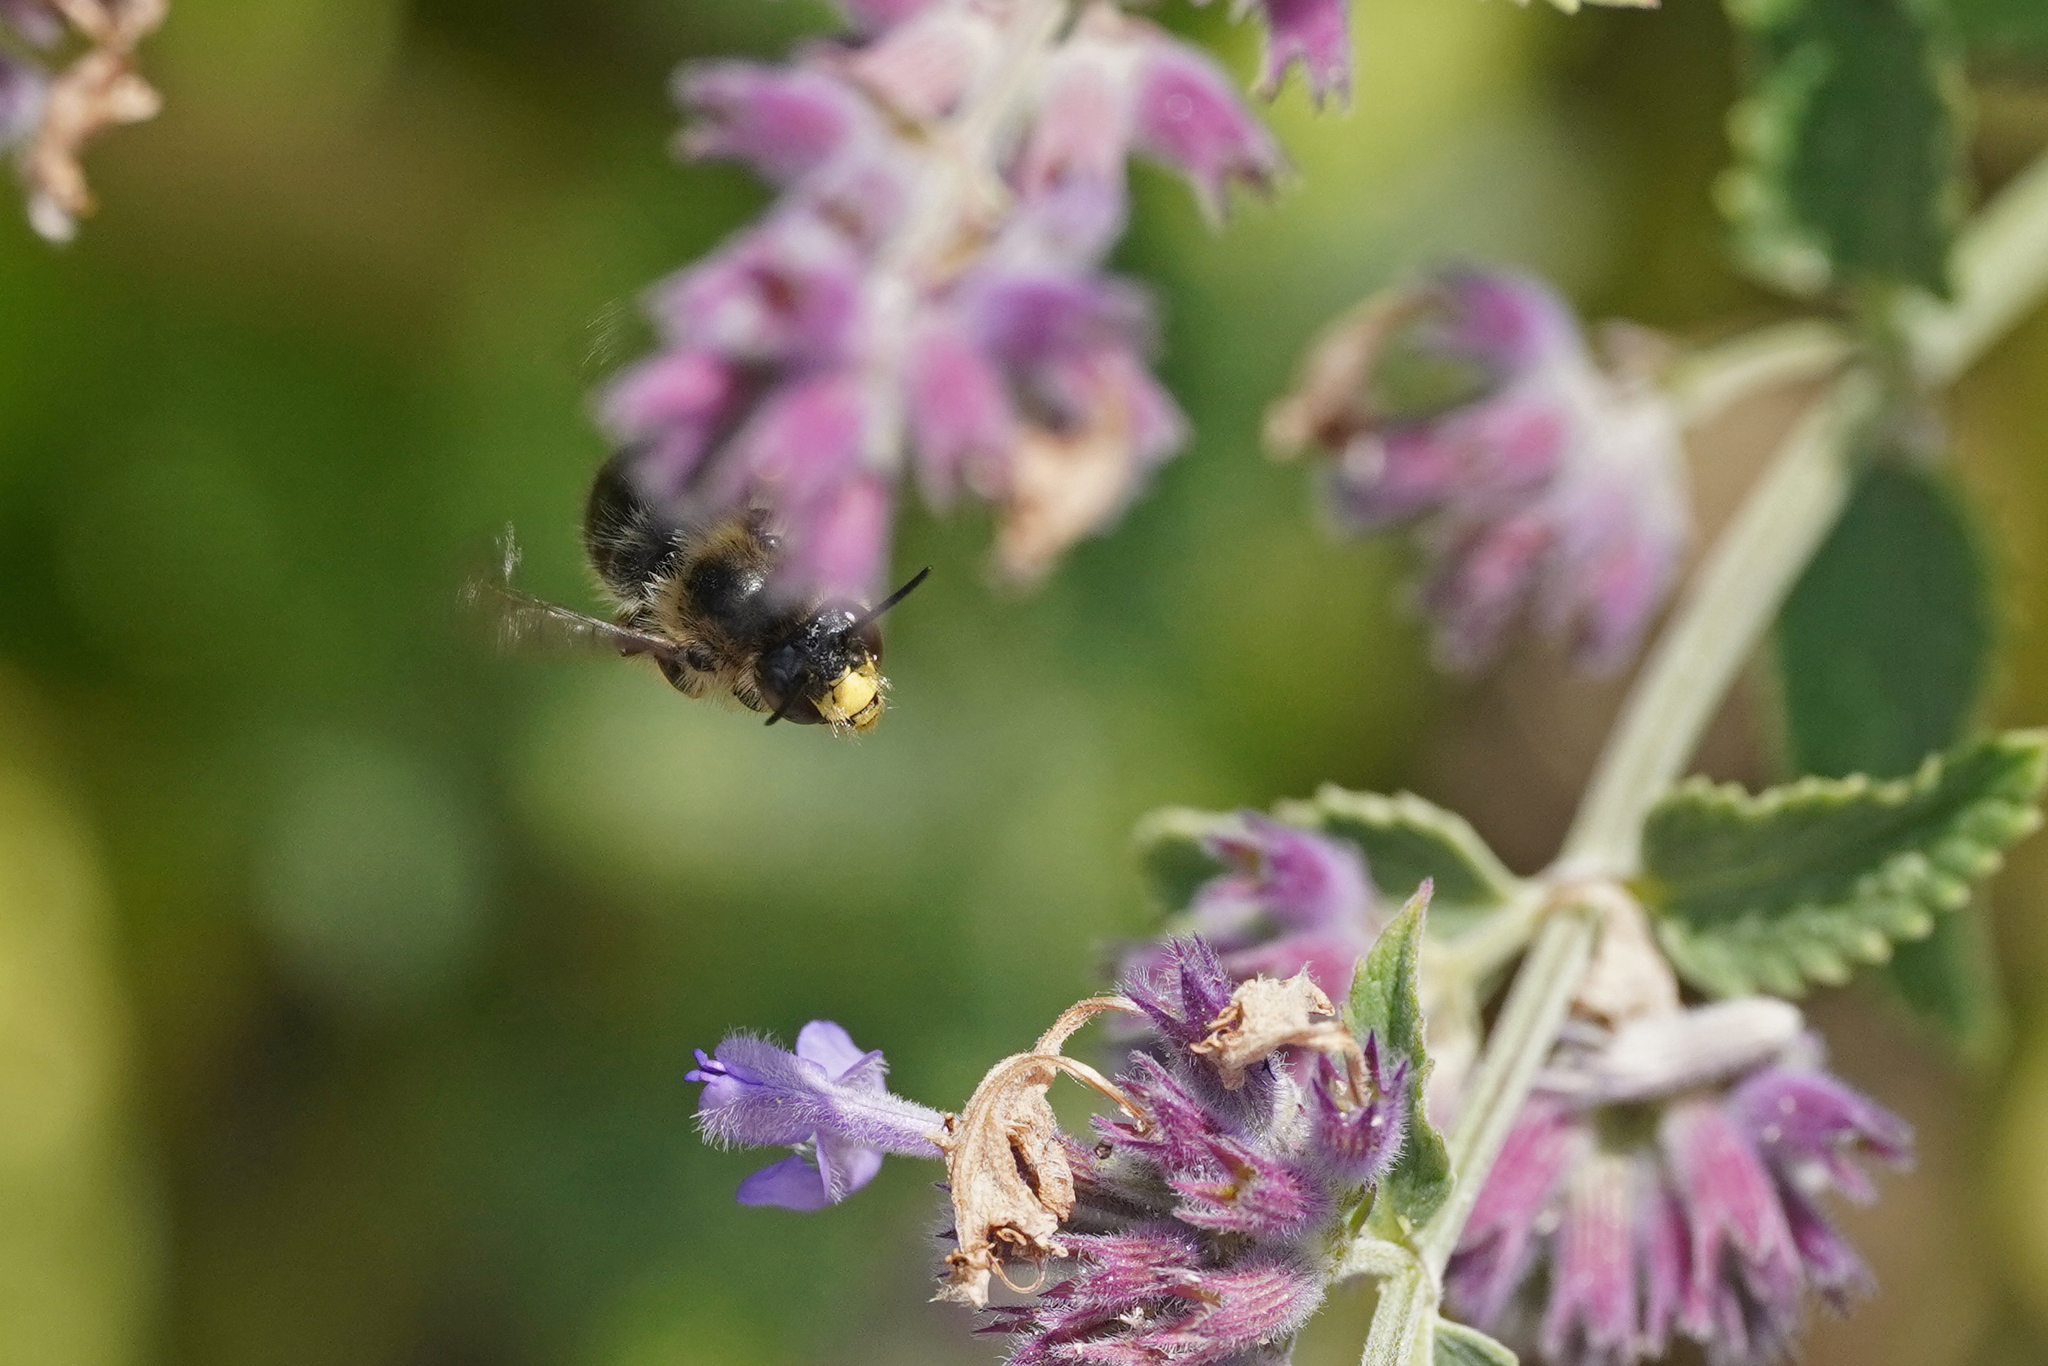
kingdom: Animalia
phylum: Arthropoda
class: Insecta
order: Hymenoptera
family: Apidae
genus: Anthophora
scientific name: Anthophora furcata
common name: Fork-tailed flower bee
